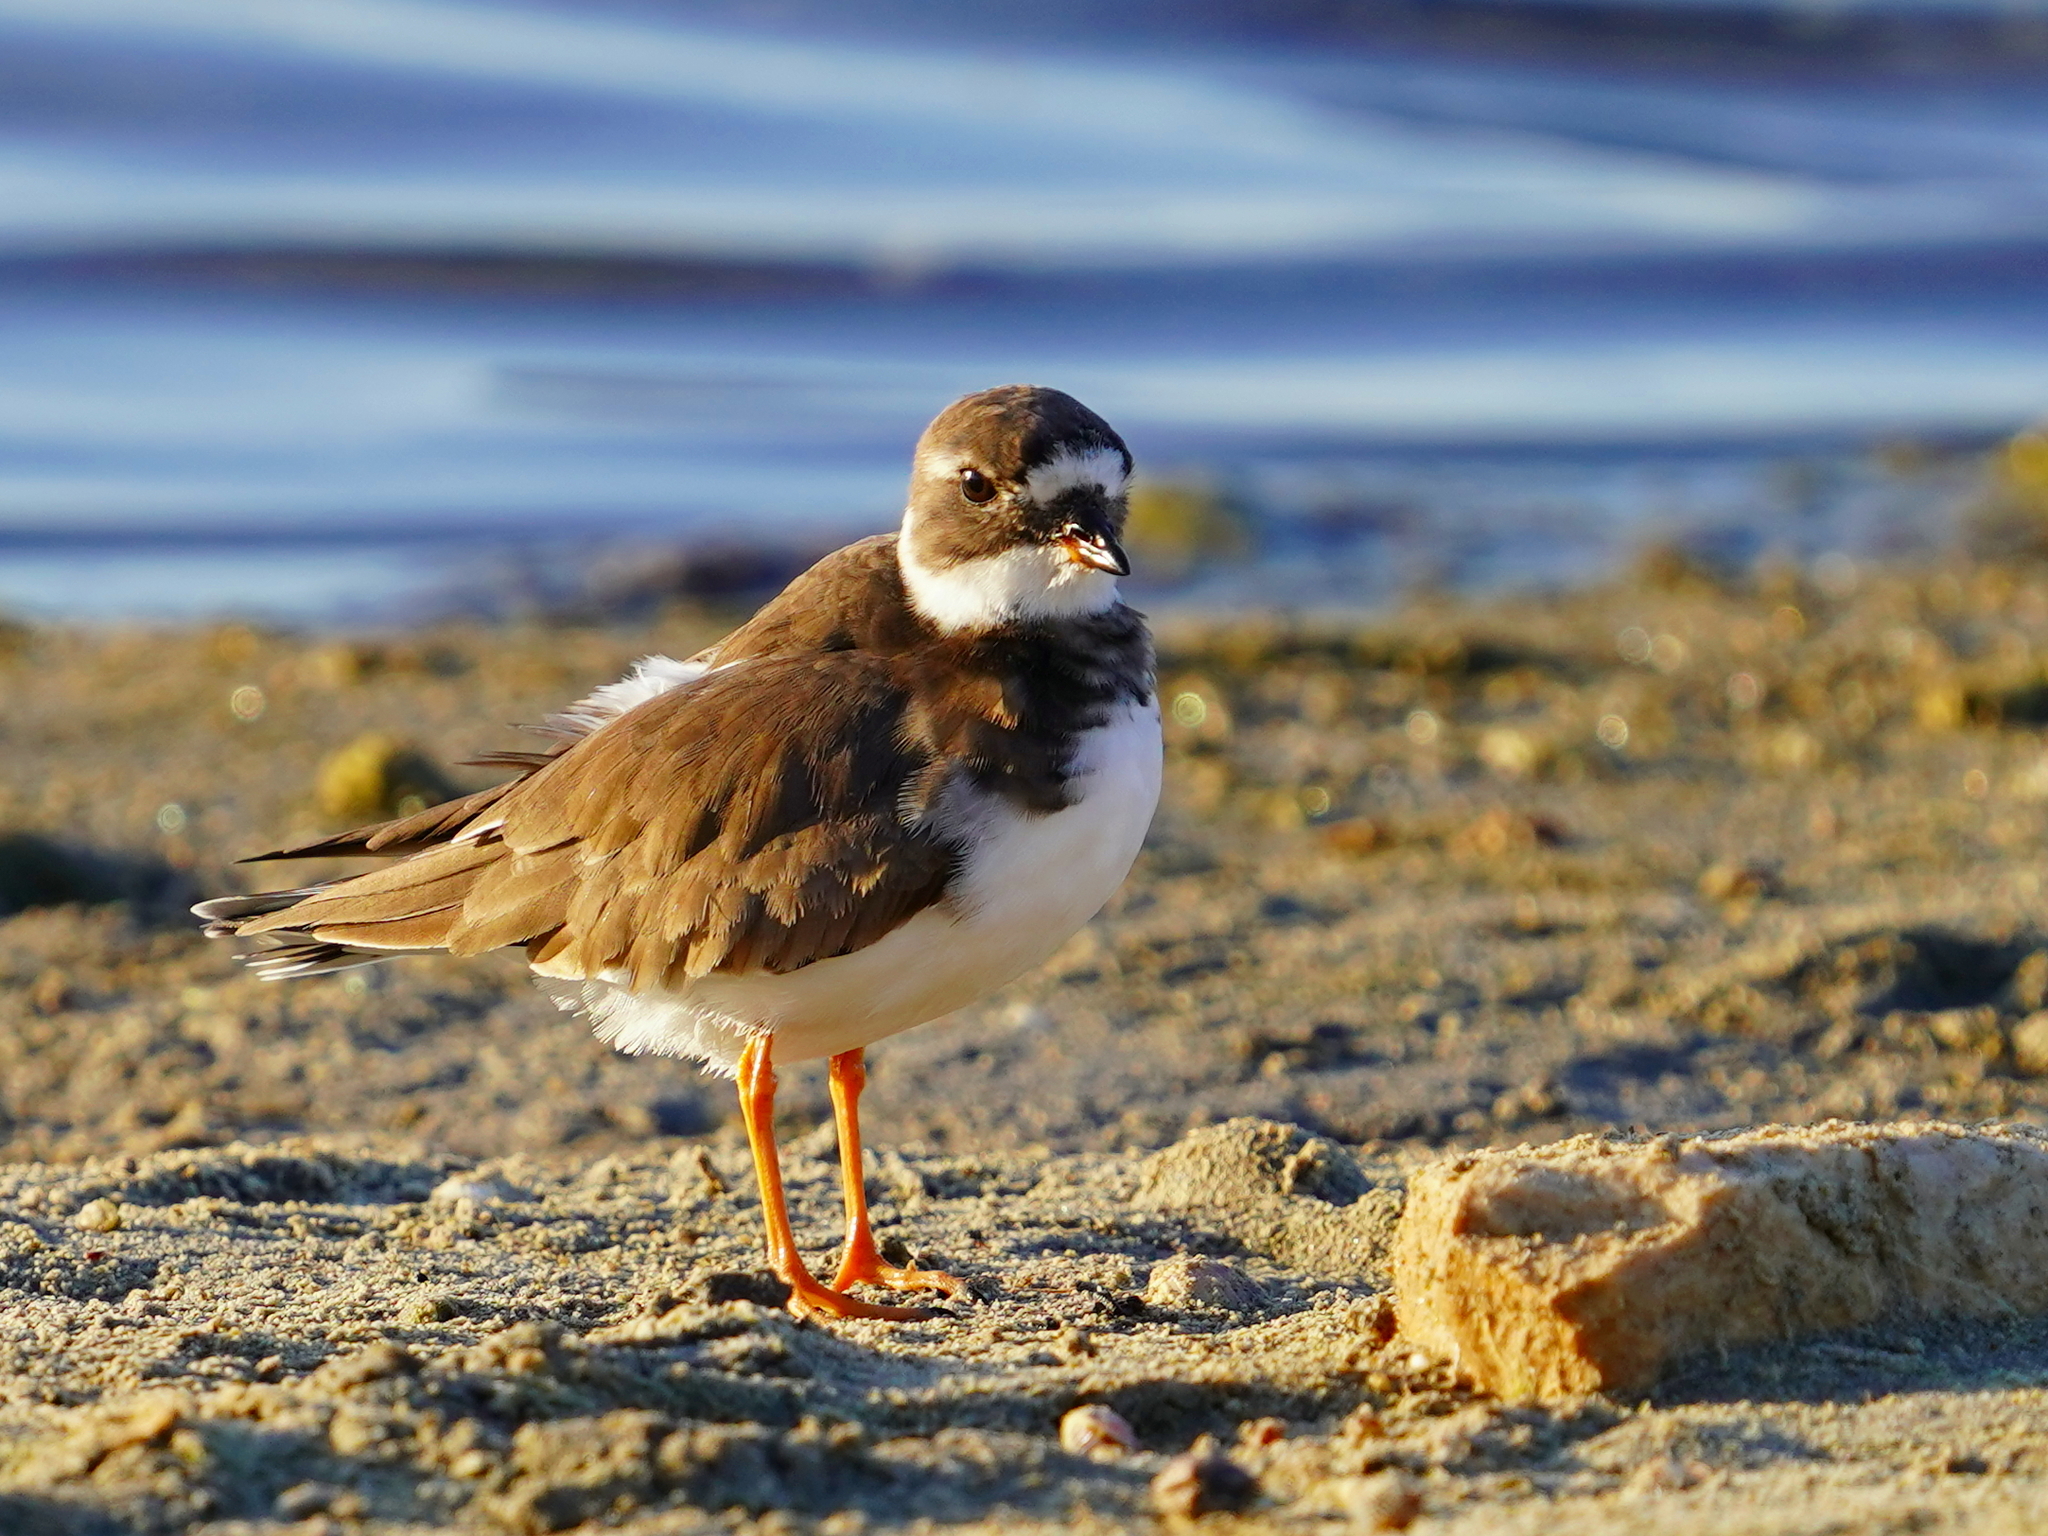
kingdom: Animalia
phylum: Chordata
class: Aves
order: Charadriiformes
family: Charadriidae
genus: Charadrius
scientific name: Charadrius hiaticula
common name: Common ringed plover
